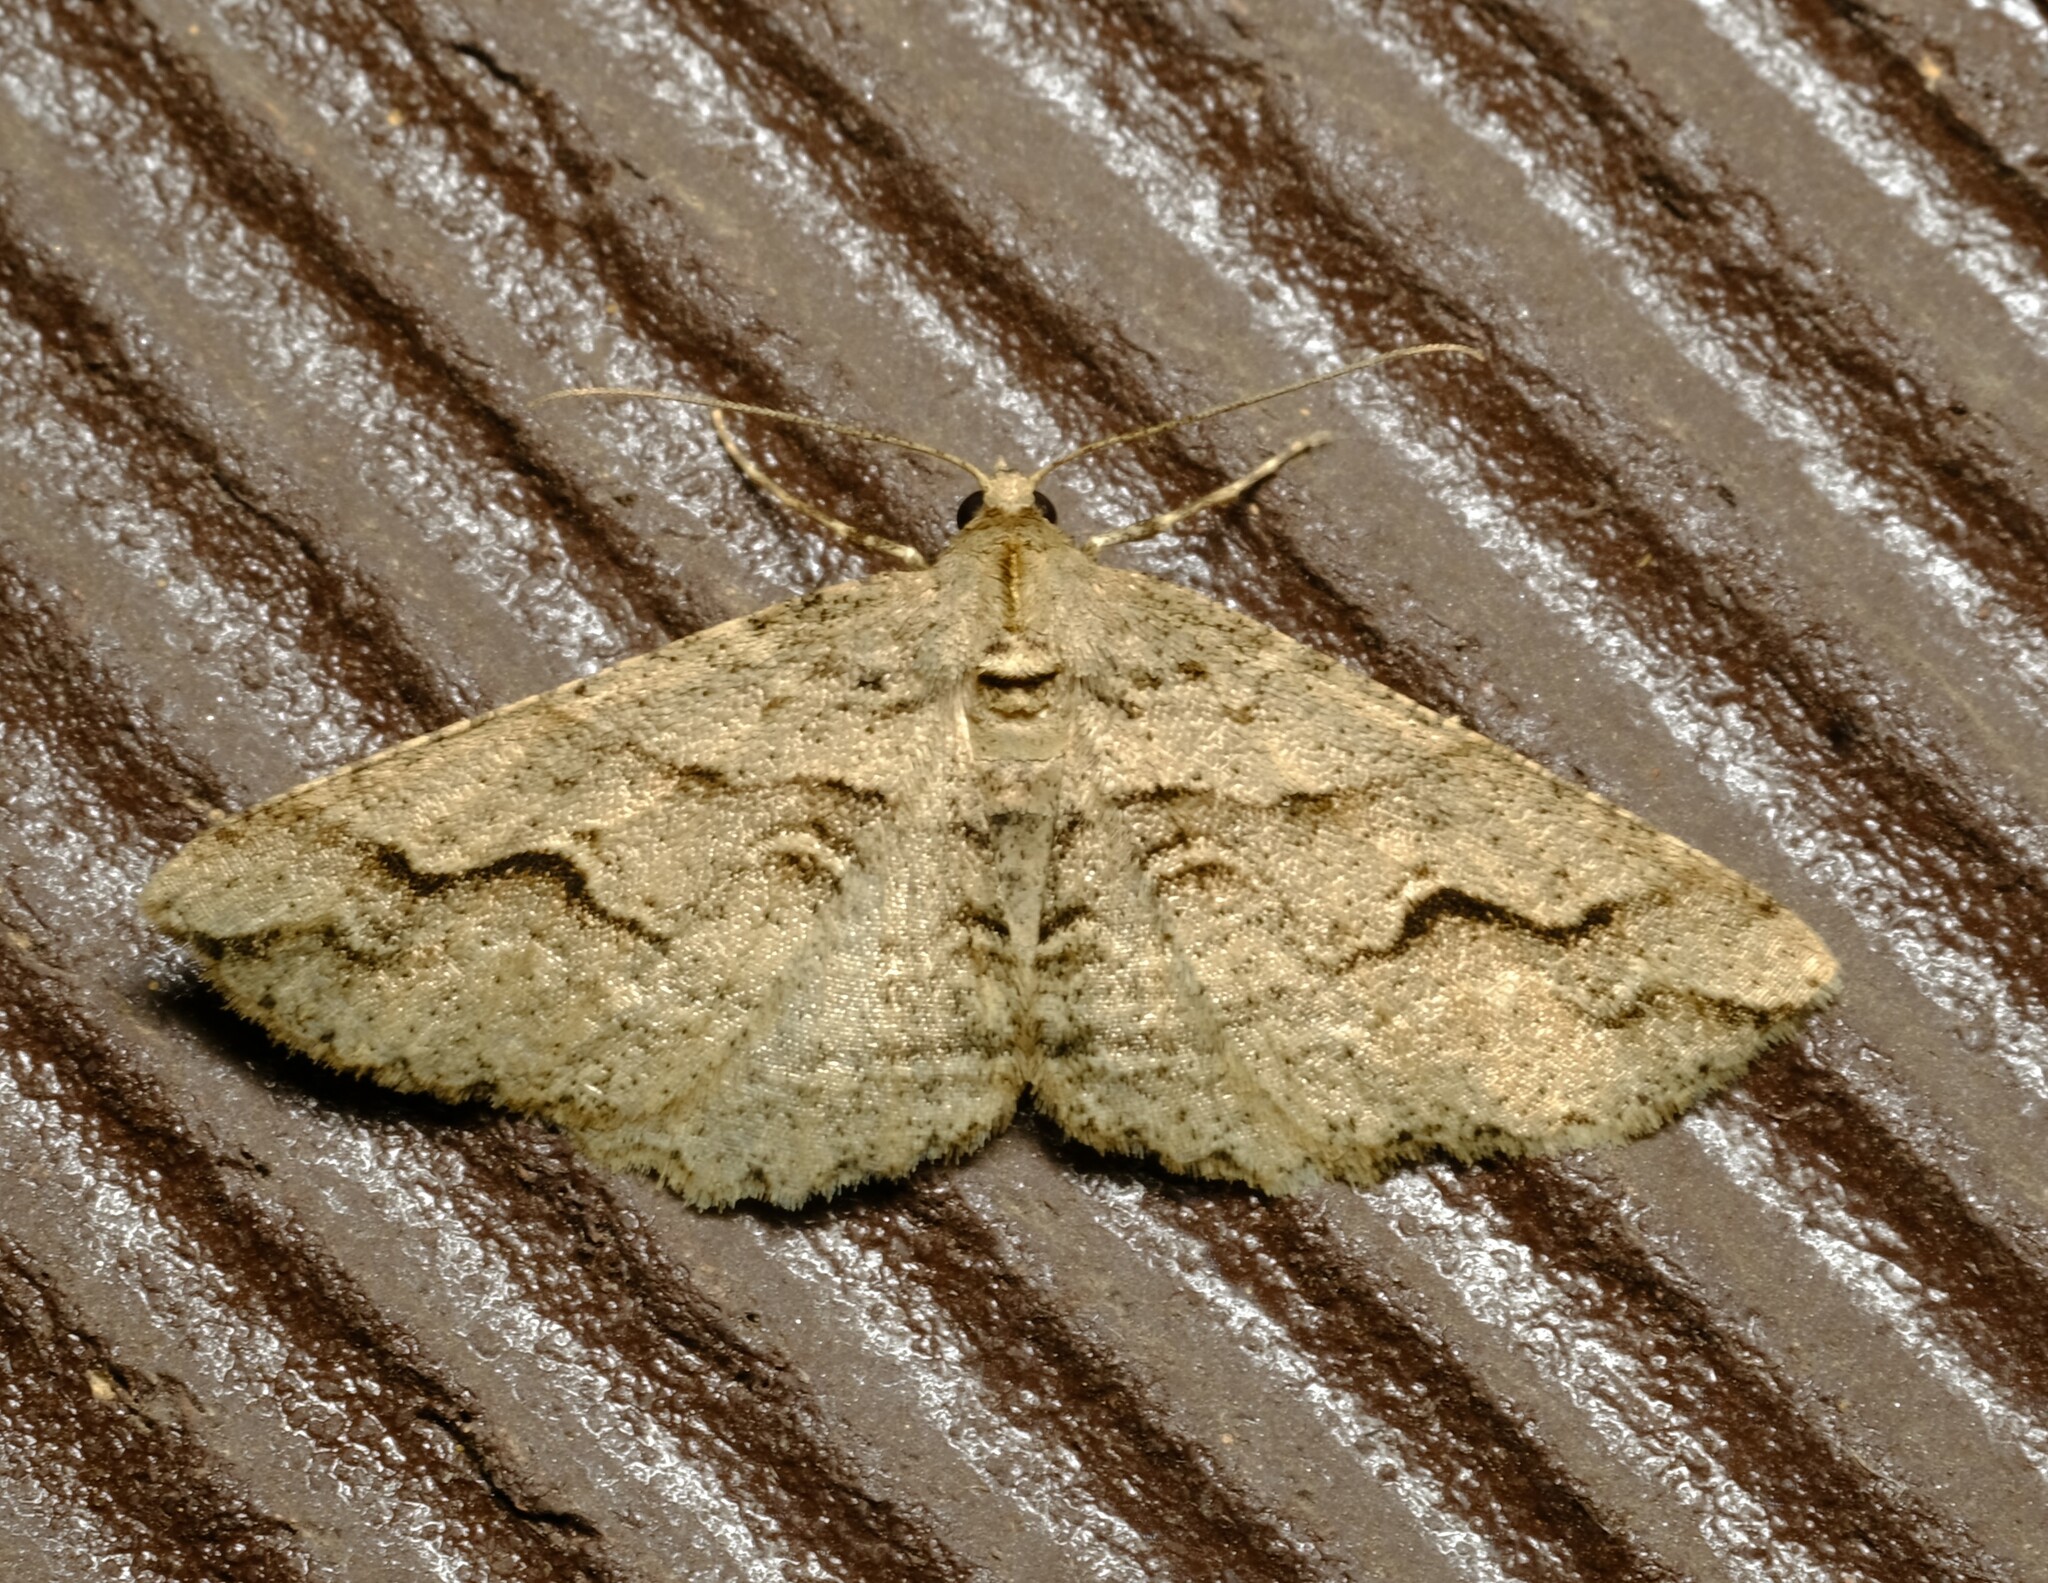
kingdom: Animalia
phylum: Arthropoda
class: Insecta
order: Lepidoptera
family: Geometridae
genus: Syneora
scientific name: Syneora fractata
